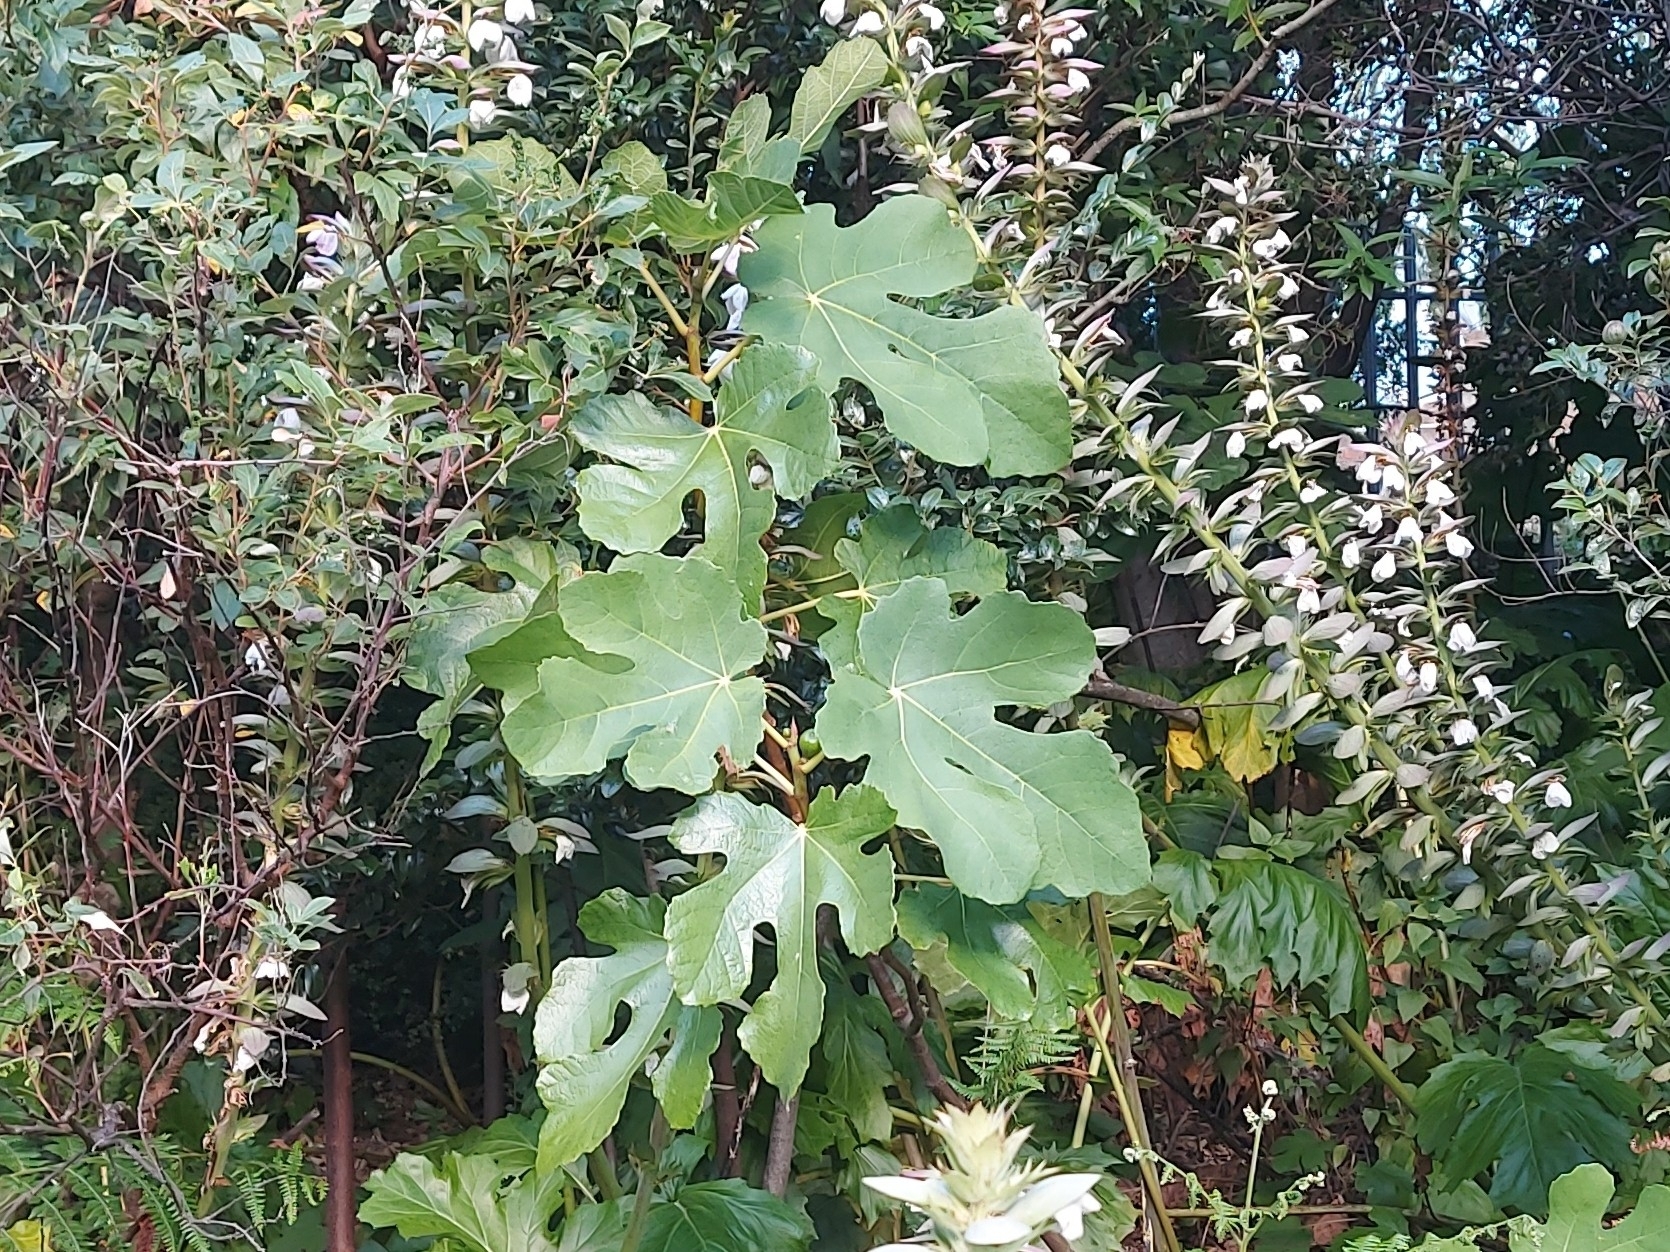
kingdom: Plantae
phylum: Tracheophyta
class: Magnoliopsida
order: Rosales
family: Moraceae
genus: Ficus
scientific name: Ficus carica
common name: Fig
